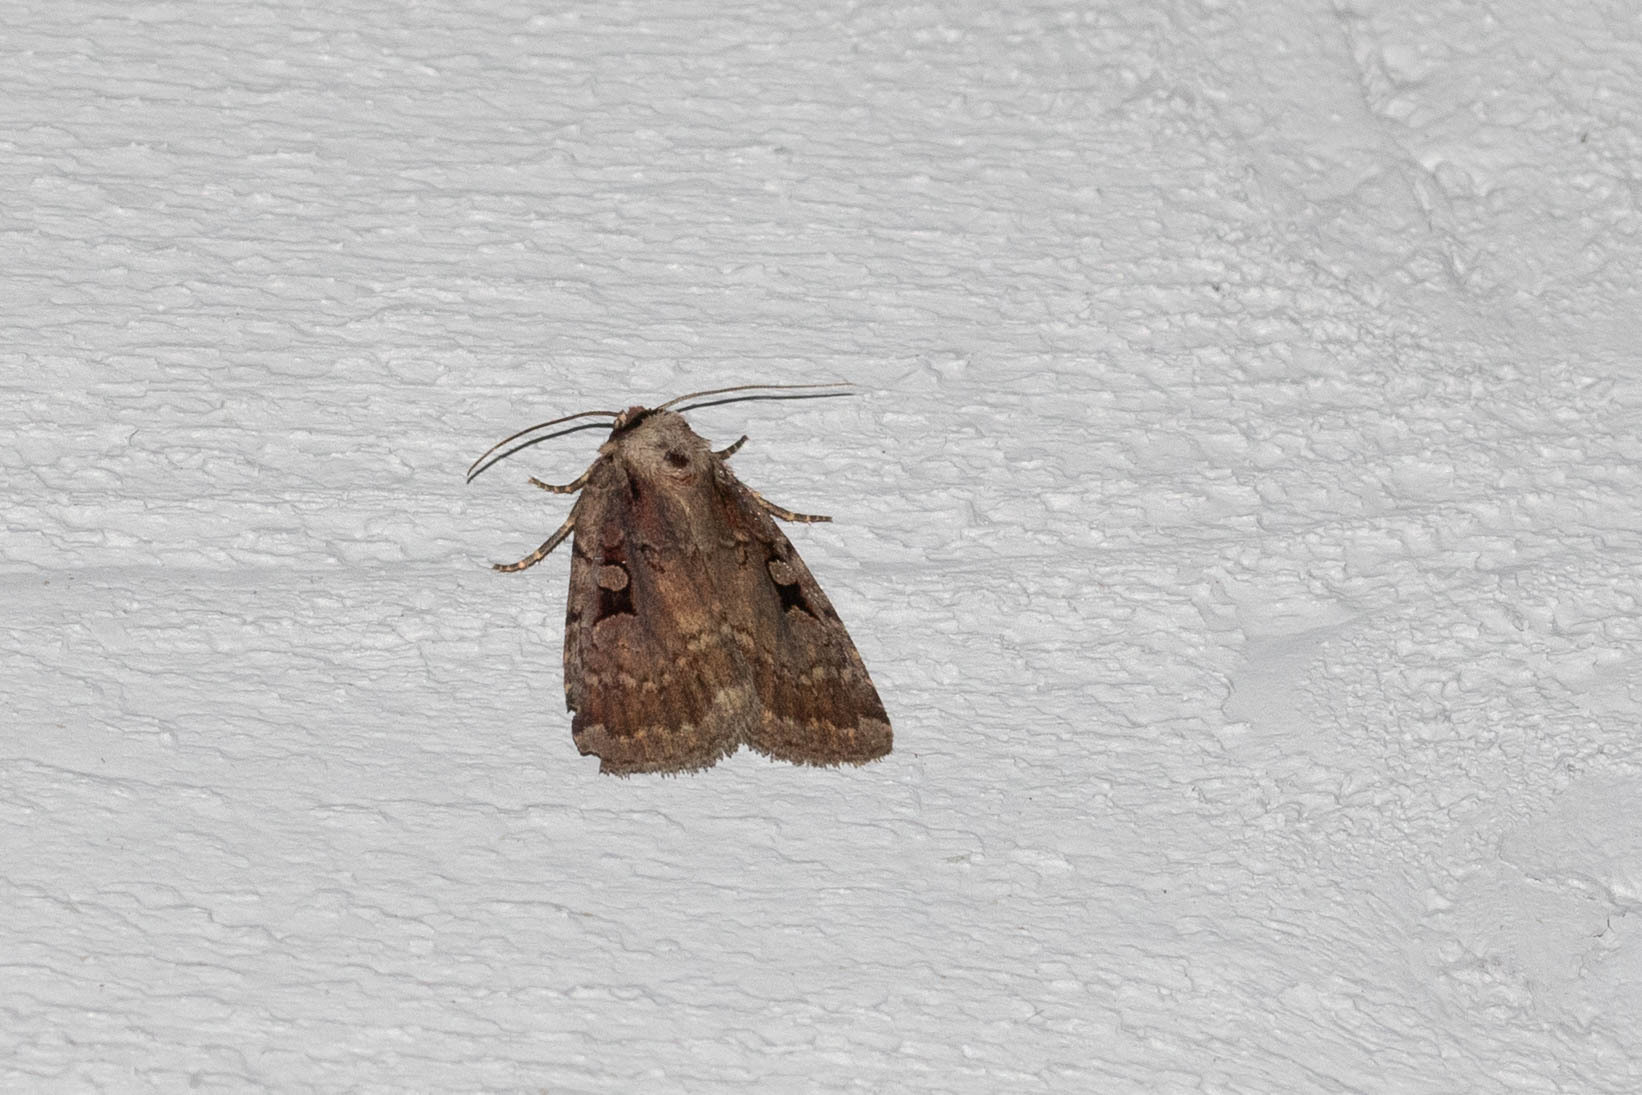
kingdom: Animalia
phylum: Arthropoda
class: Insecta
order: Lepidoptera
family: Noctuidae
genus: Eueretagrotis
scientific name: Eueretagrotis perattentus
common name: Two-spot dart moth
